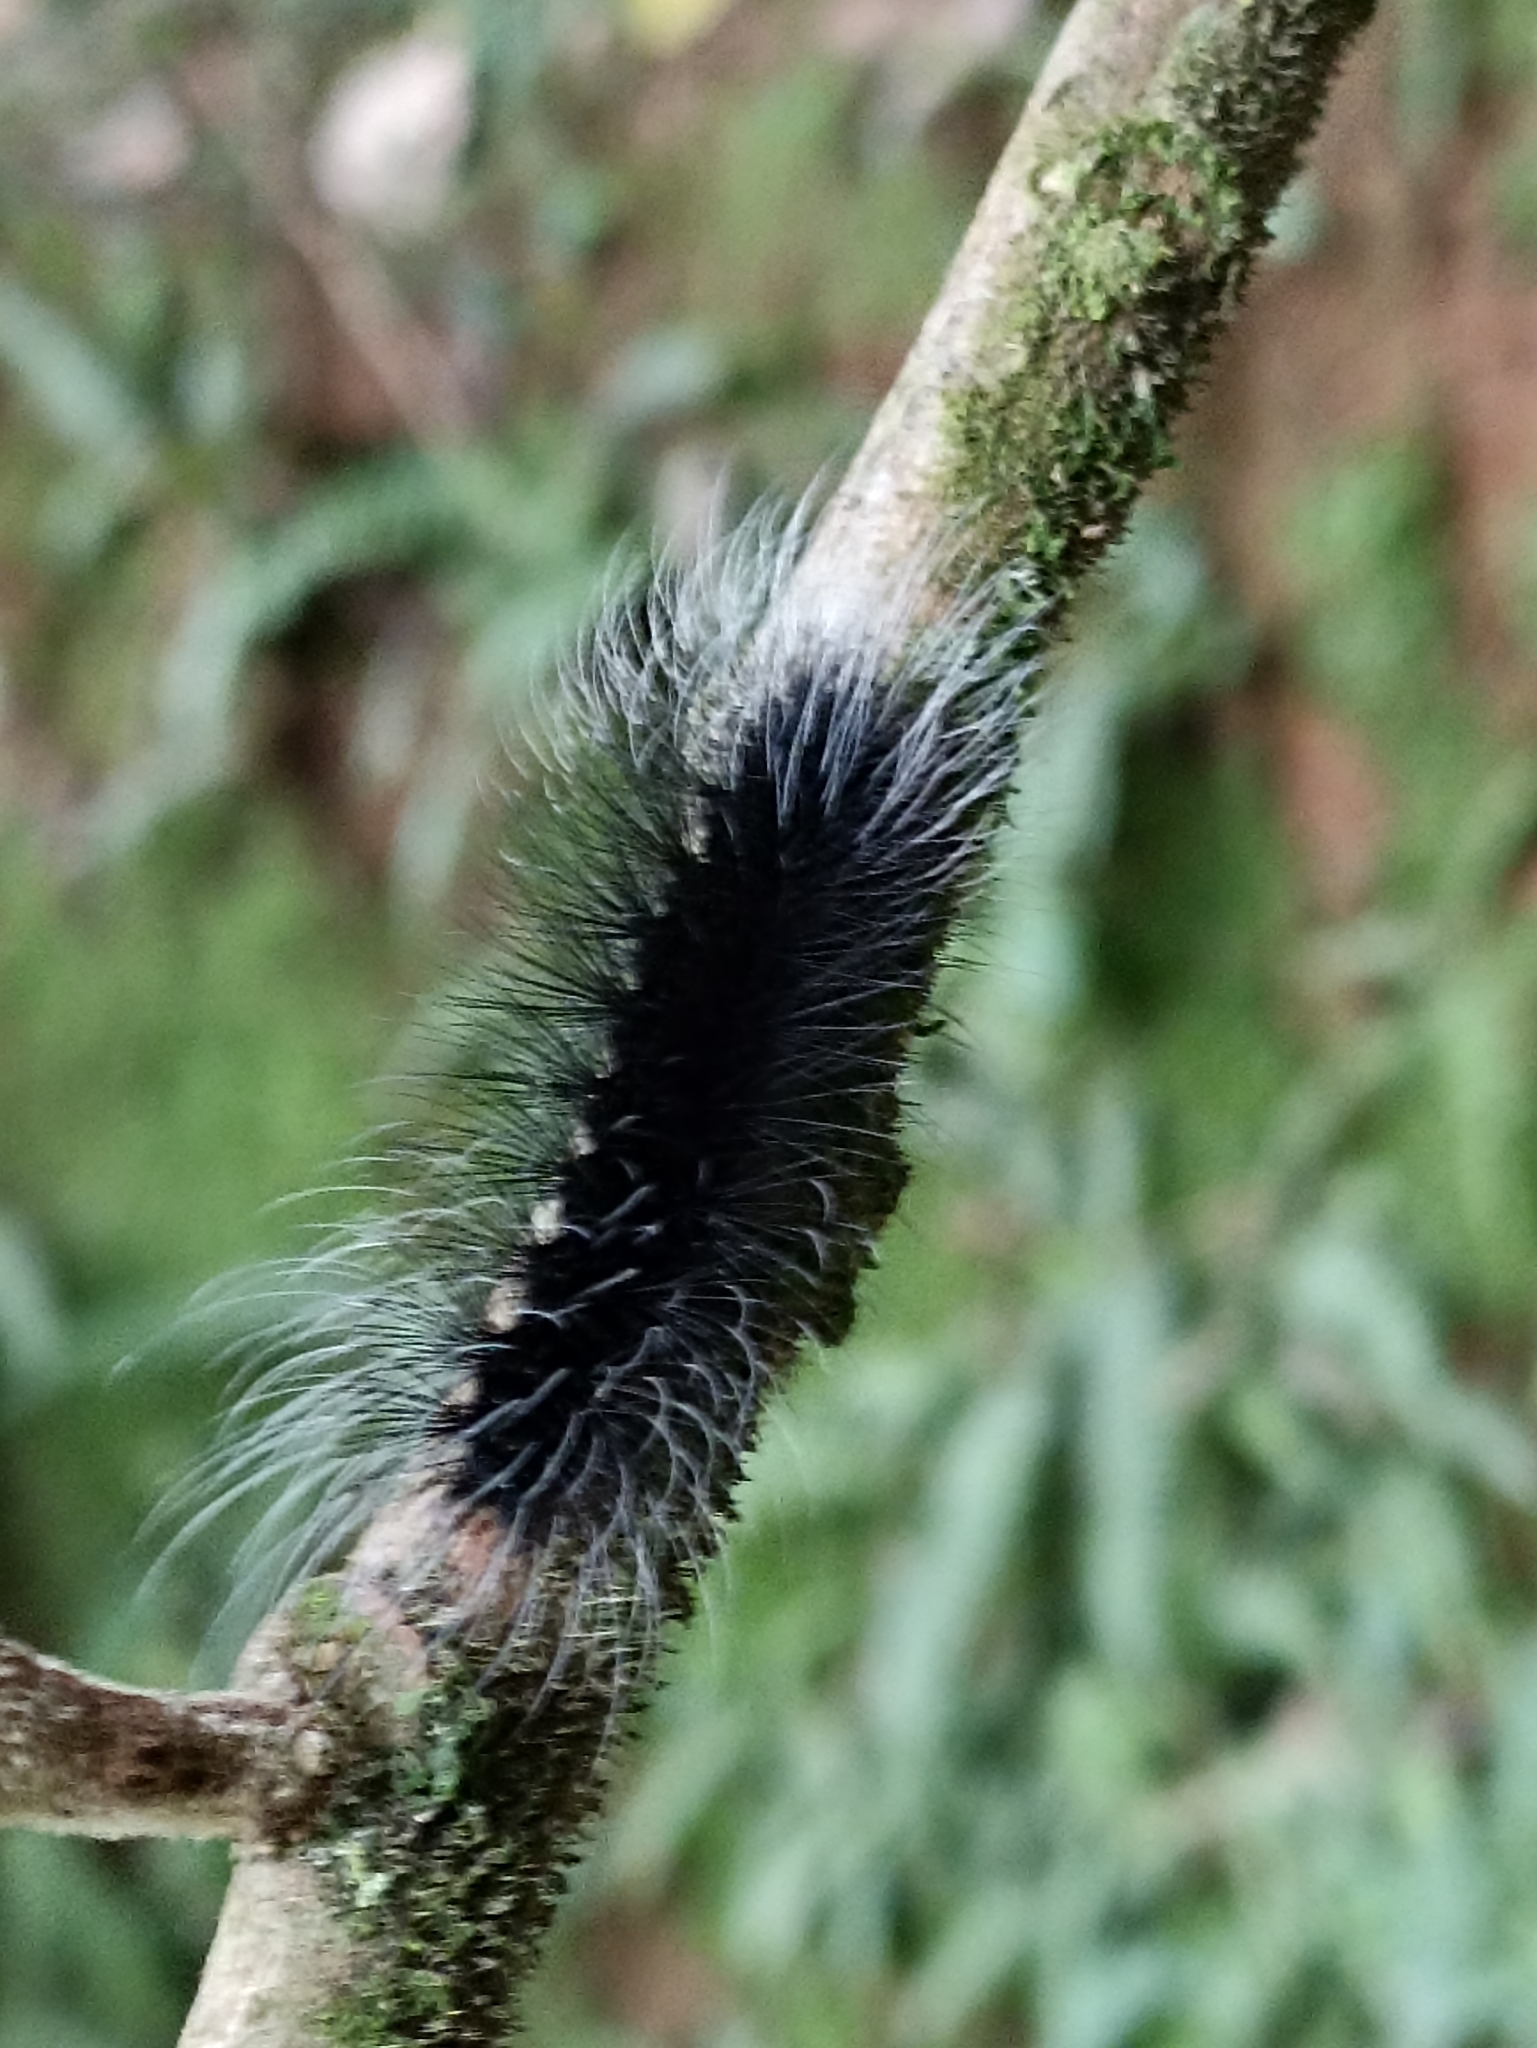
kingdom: Animalia
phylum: Arthropoda
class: Insecta
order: Lepidoptera
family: Erebidae
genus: Apistosia
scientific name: Apistosia judas
